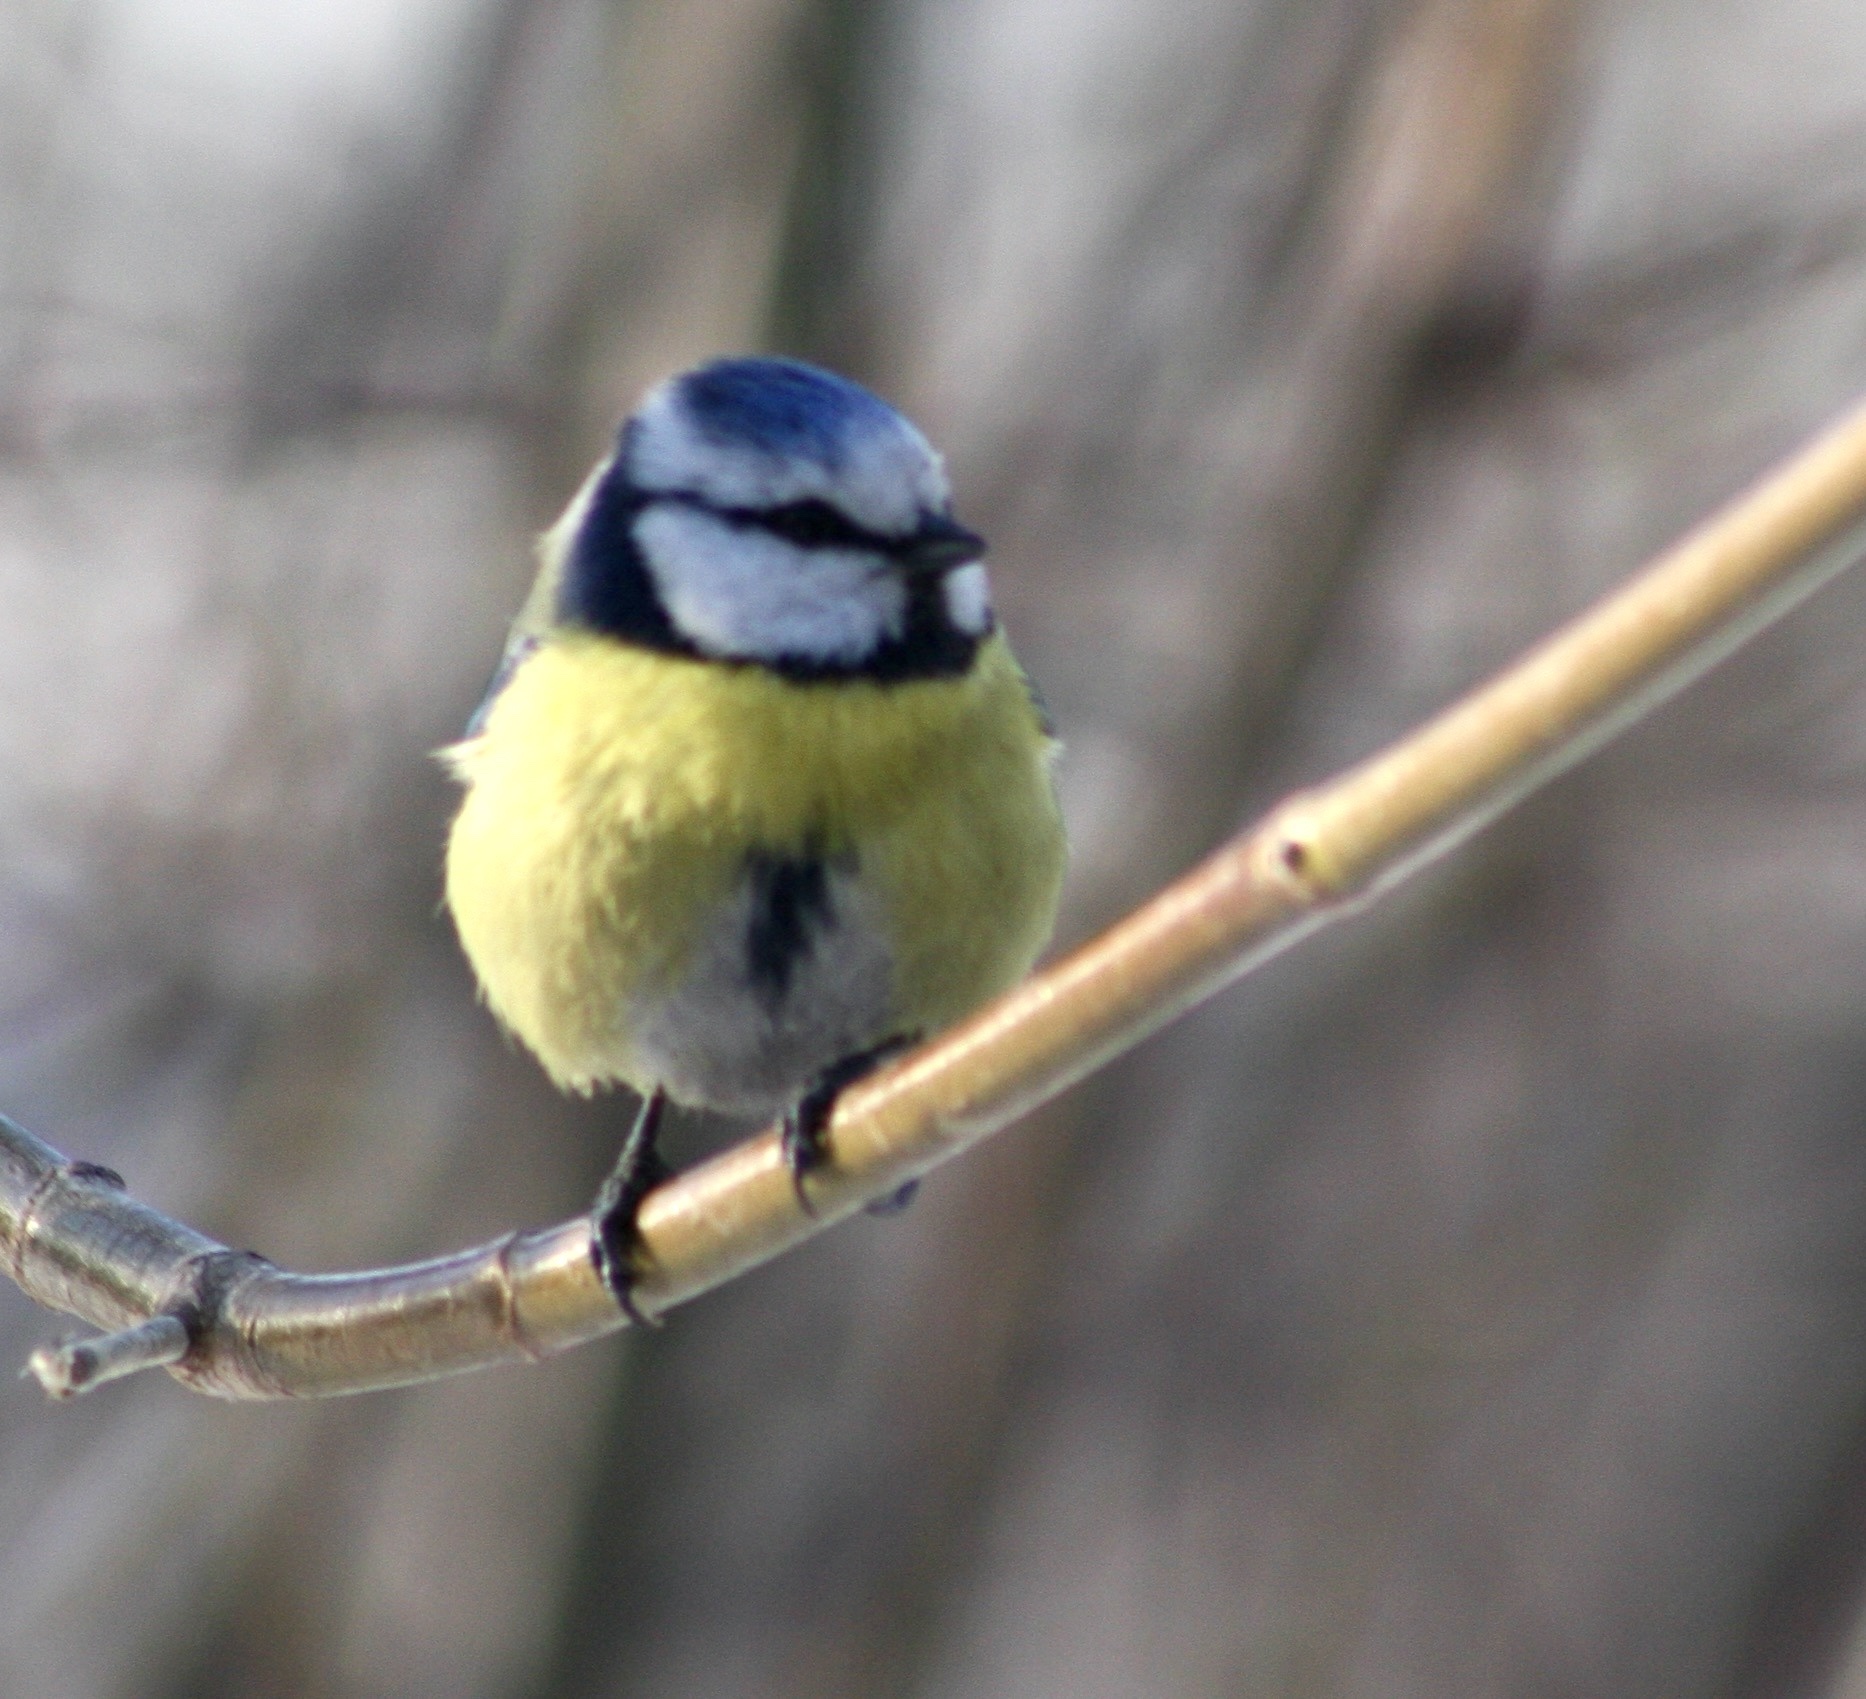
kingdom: Animalia
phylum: Chordata
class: Aves
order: Passeriformes
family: Paridae
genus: Cyanistes
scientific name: Cyanistes caeruleus
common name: Eurasian blue tit
